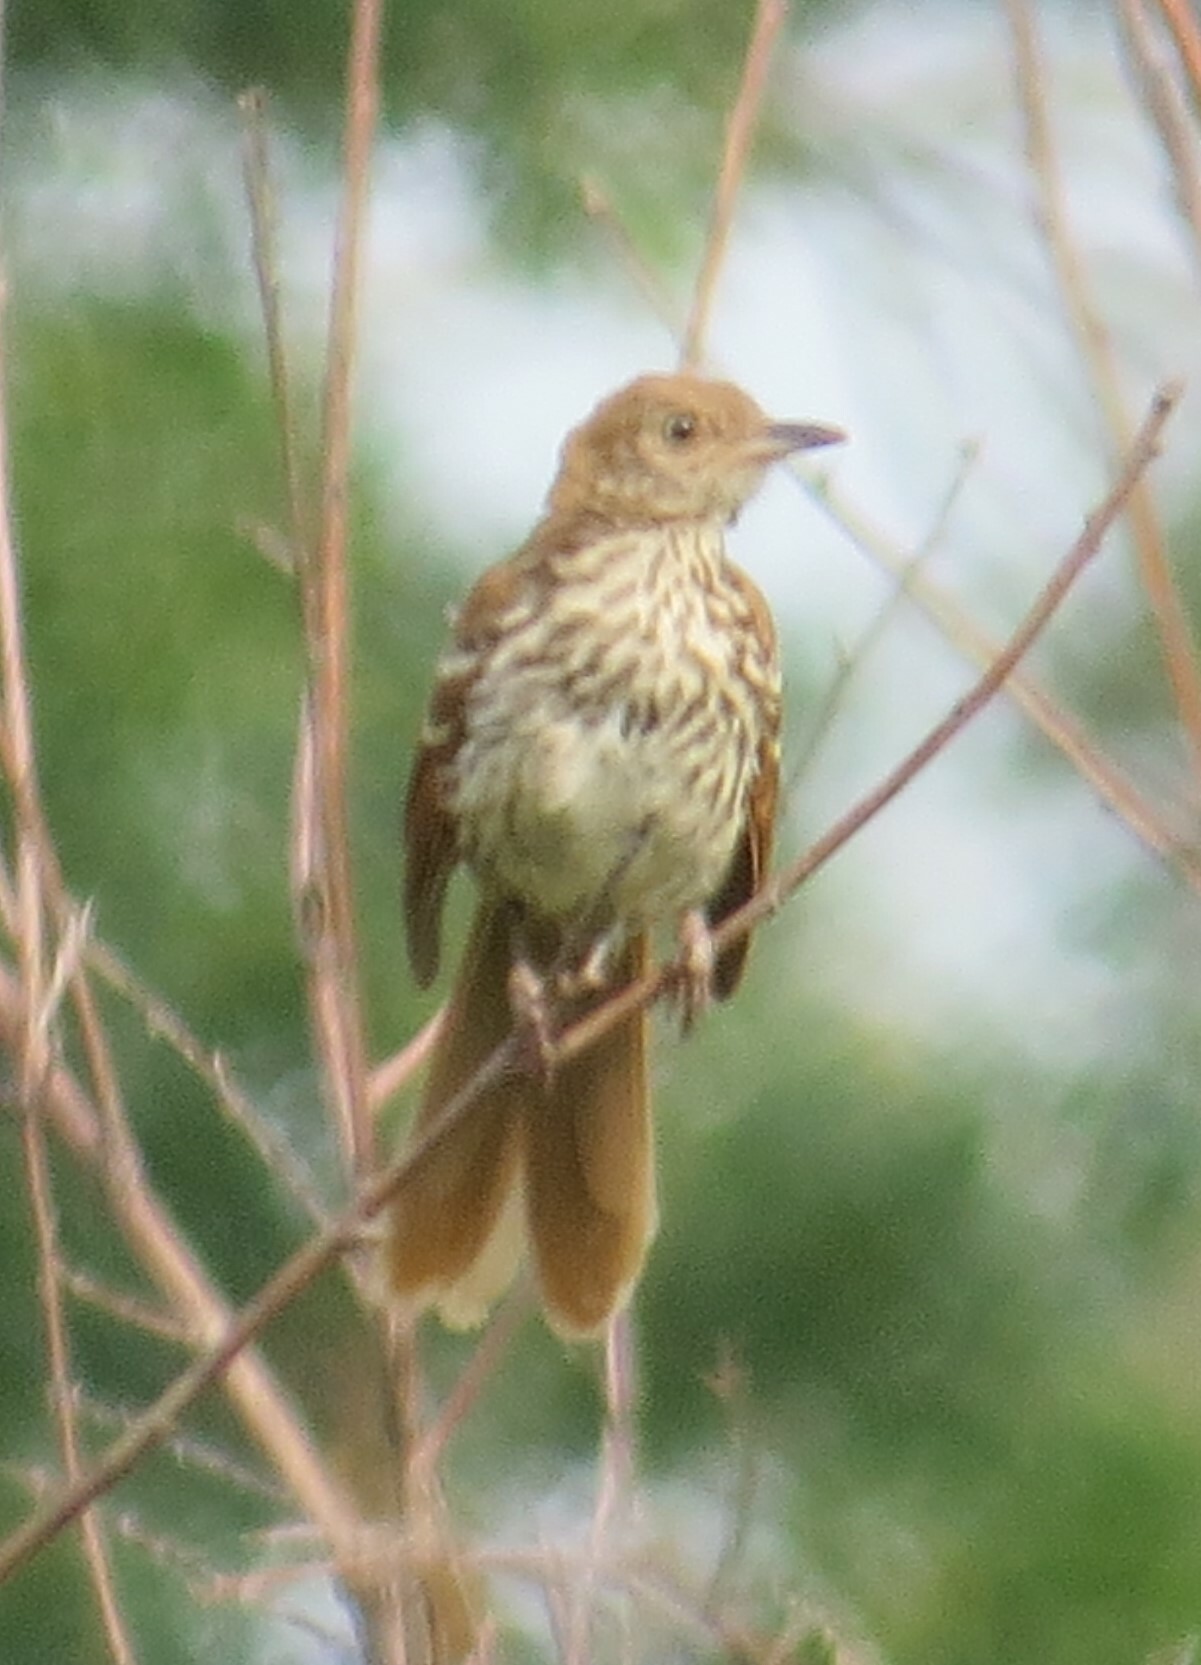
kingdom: Animalia
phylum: Chordata
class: Aves
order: Passeriformes
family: Mimidae
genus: Toxostoma
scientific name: Toxostoma rufum
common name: Brown thrasher
